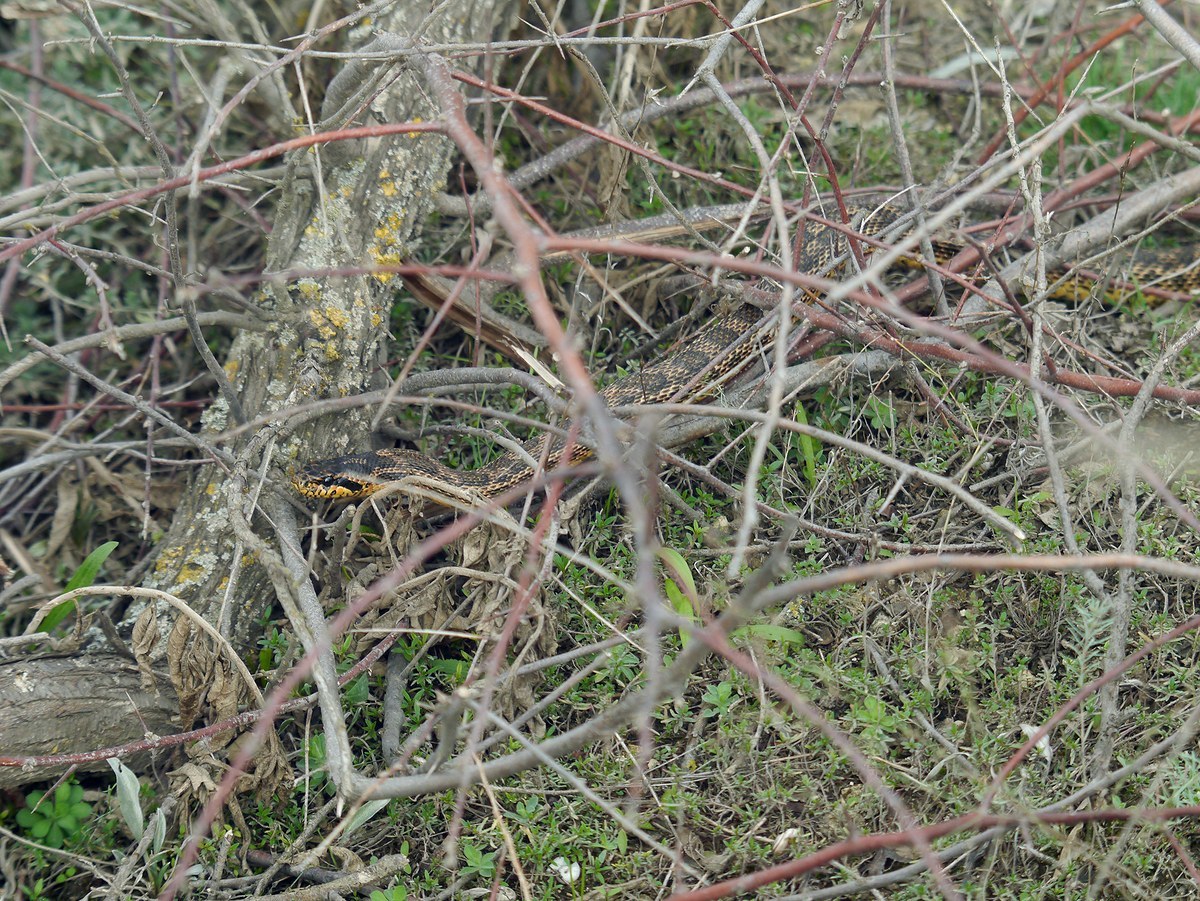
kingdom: Animalia
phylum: Chordata
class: Squamata
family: Colubridae
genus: Elaphe
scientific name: Elaphe sauromates
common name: Eastern four-lined ratsnake
